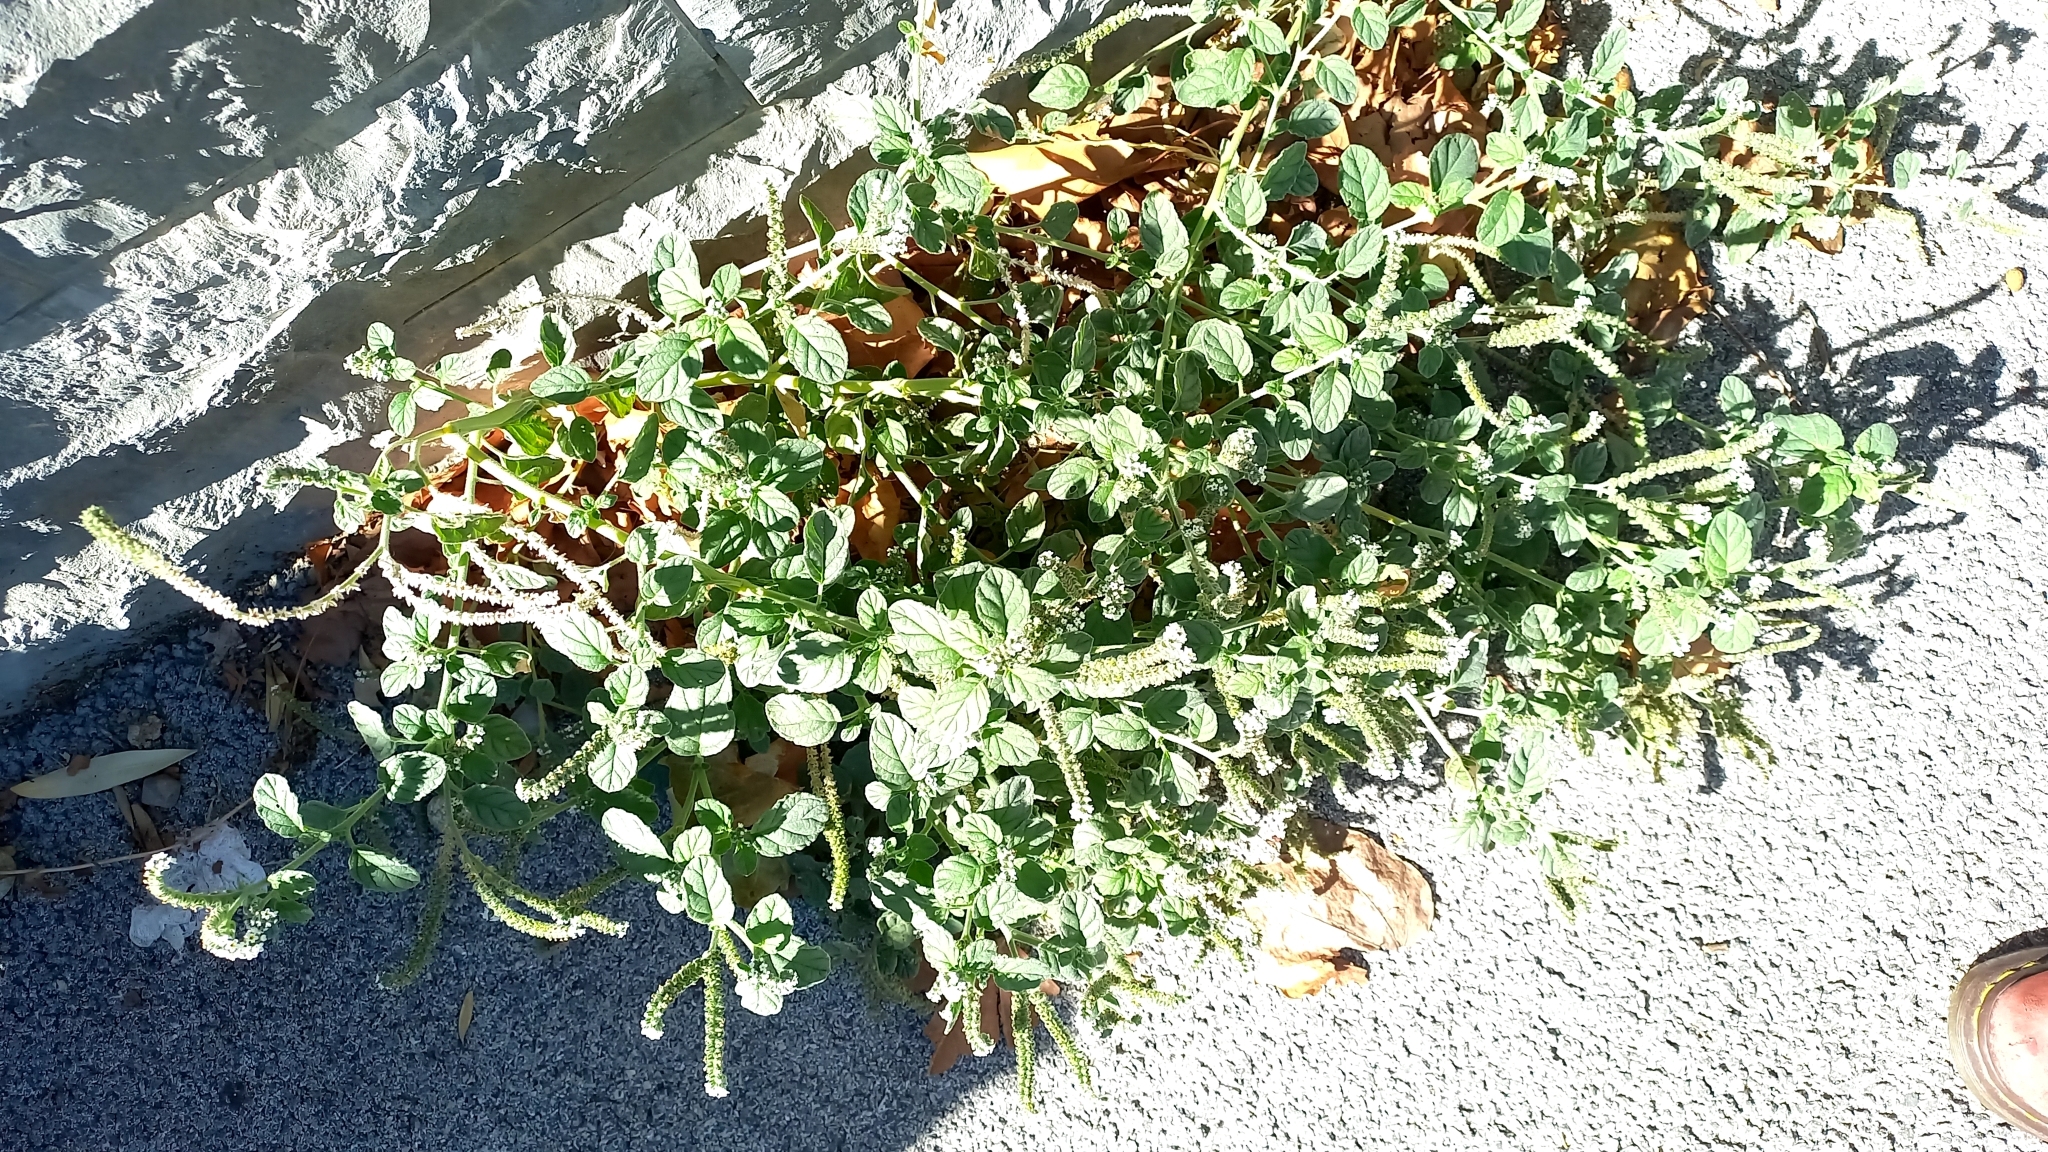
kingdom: Plantae
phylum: Tracheophyta
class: Magnoliopsida
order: Boraginales
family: Heliotropiaceae
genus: Heliotropium
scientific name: Heliotropium europaeum
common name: European heliotrope
